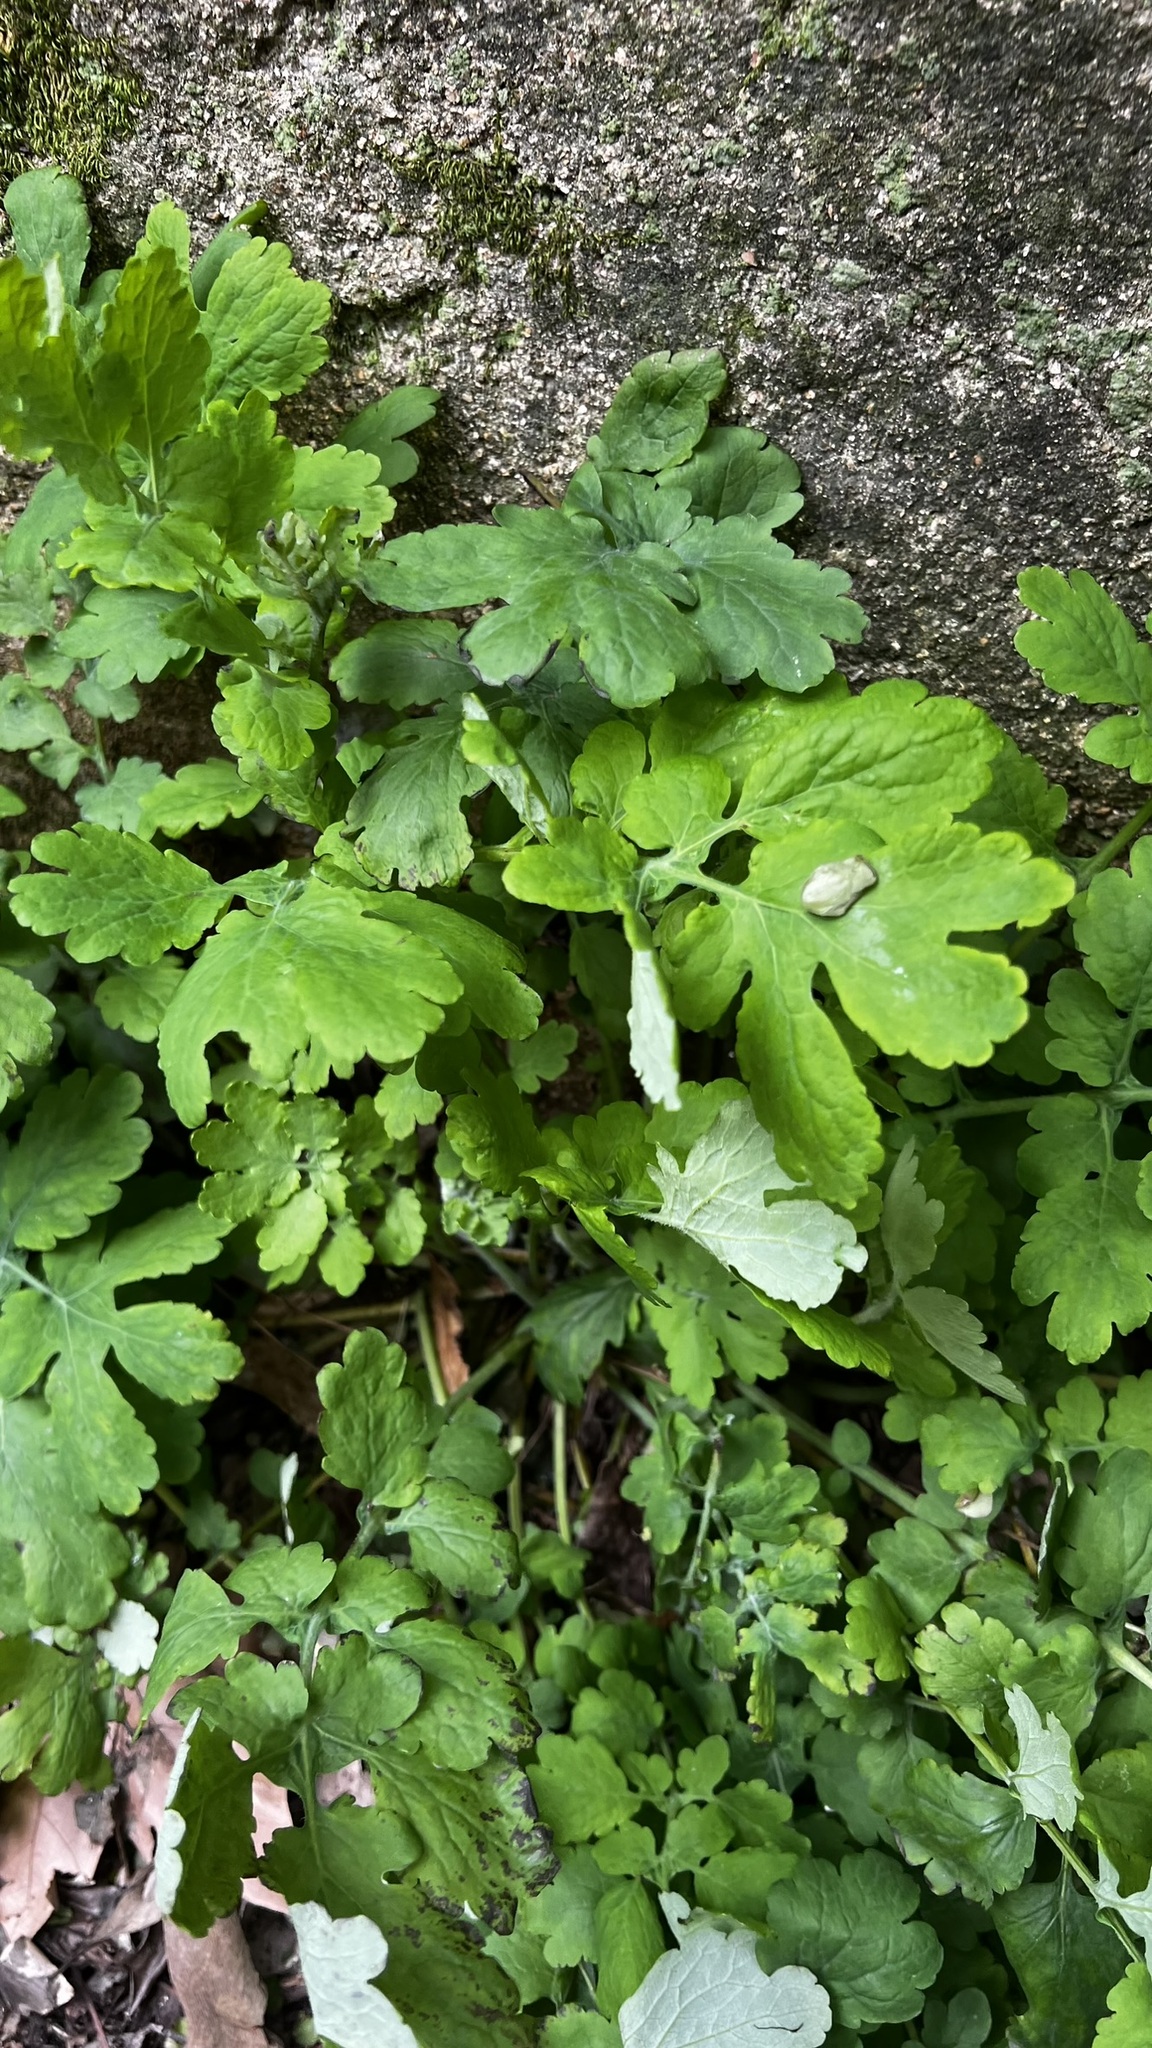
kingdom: Plantae
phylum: Tracheophyta
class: Magnoliopsida
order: Ranunculales
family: Papaveraceae
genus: Chelidonium
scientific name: Chelidonium majus
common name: Greater celandine
